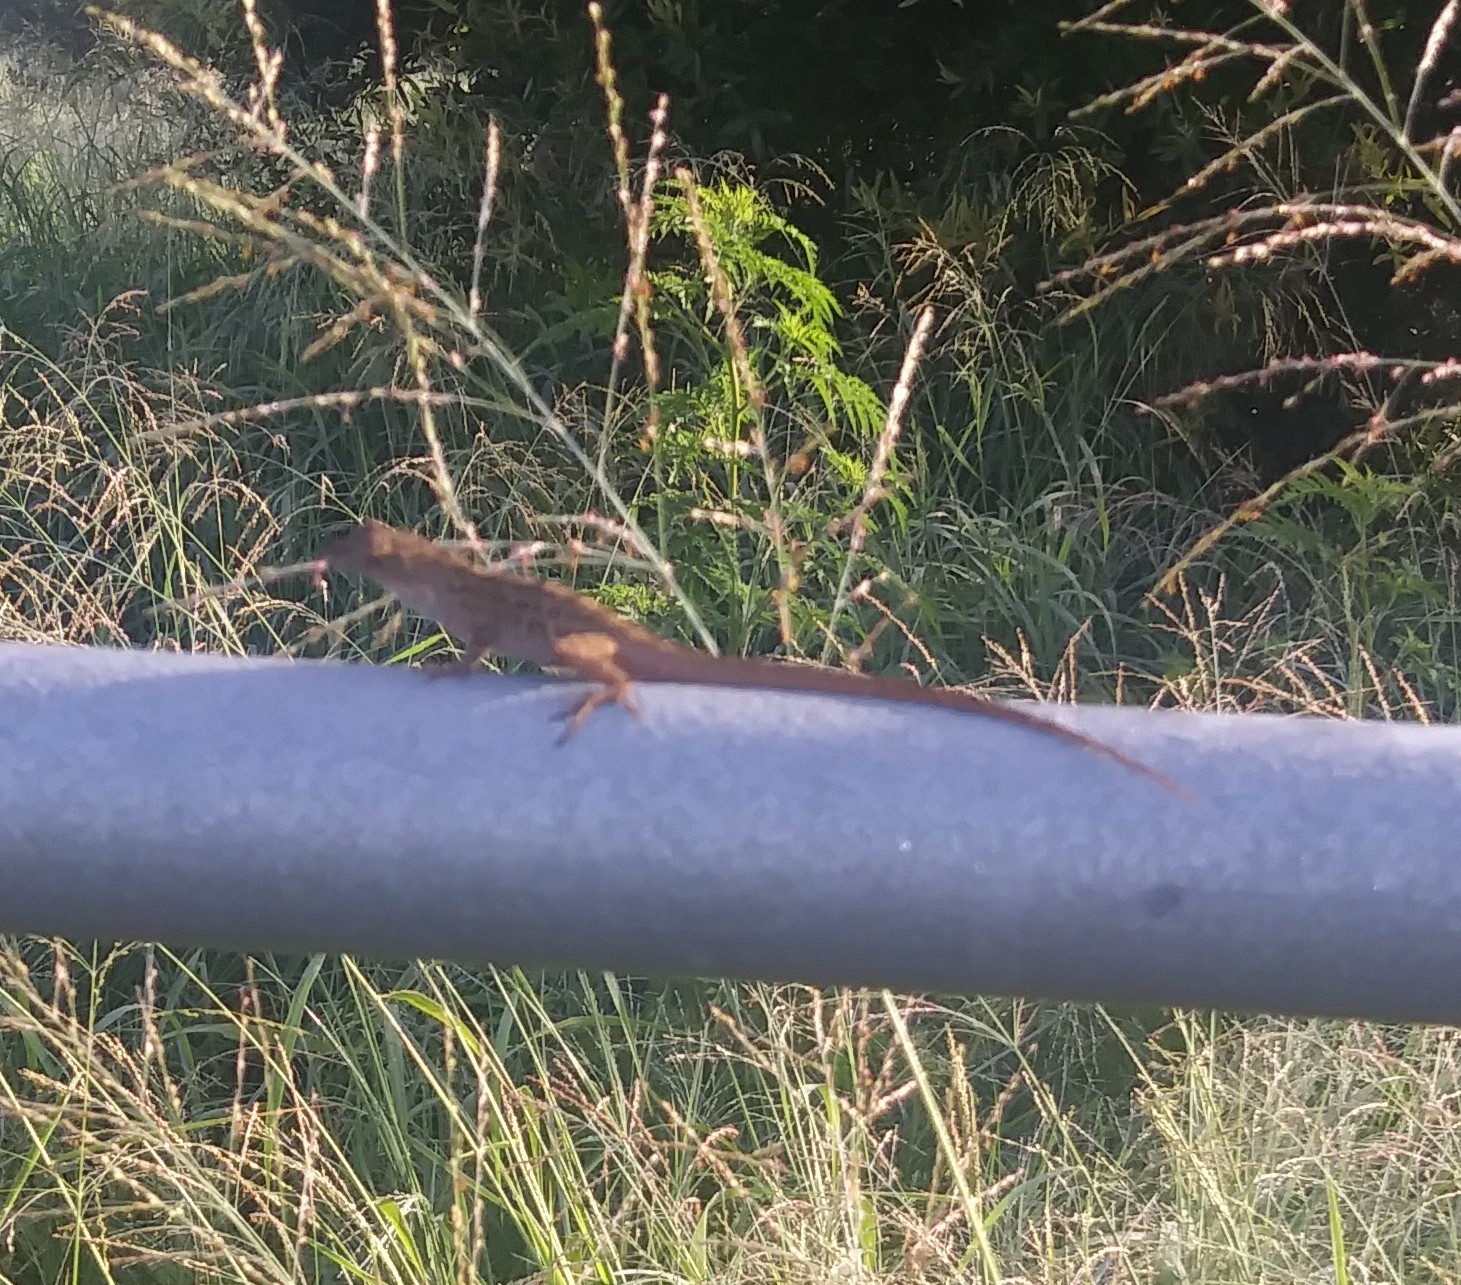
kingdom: Animalia
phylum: Chordata
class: Squamata
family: Dactyloidae
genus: Anolis
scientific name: Anolis sagrei
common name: Brown anole
